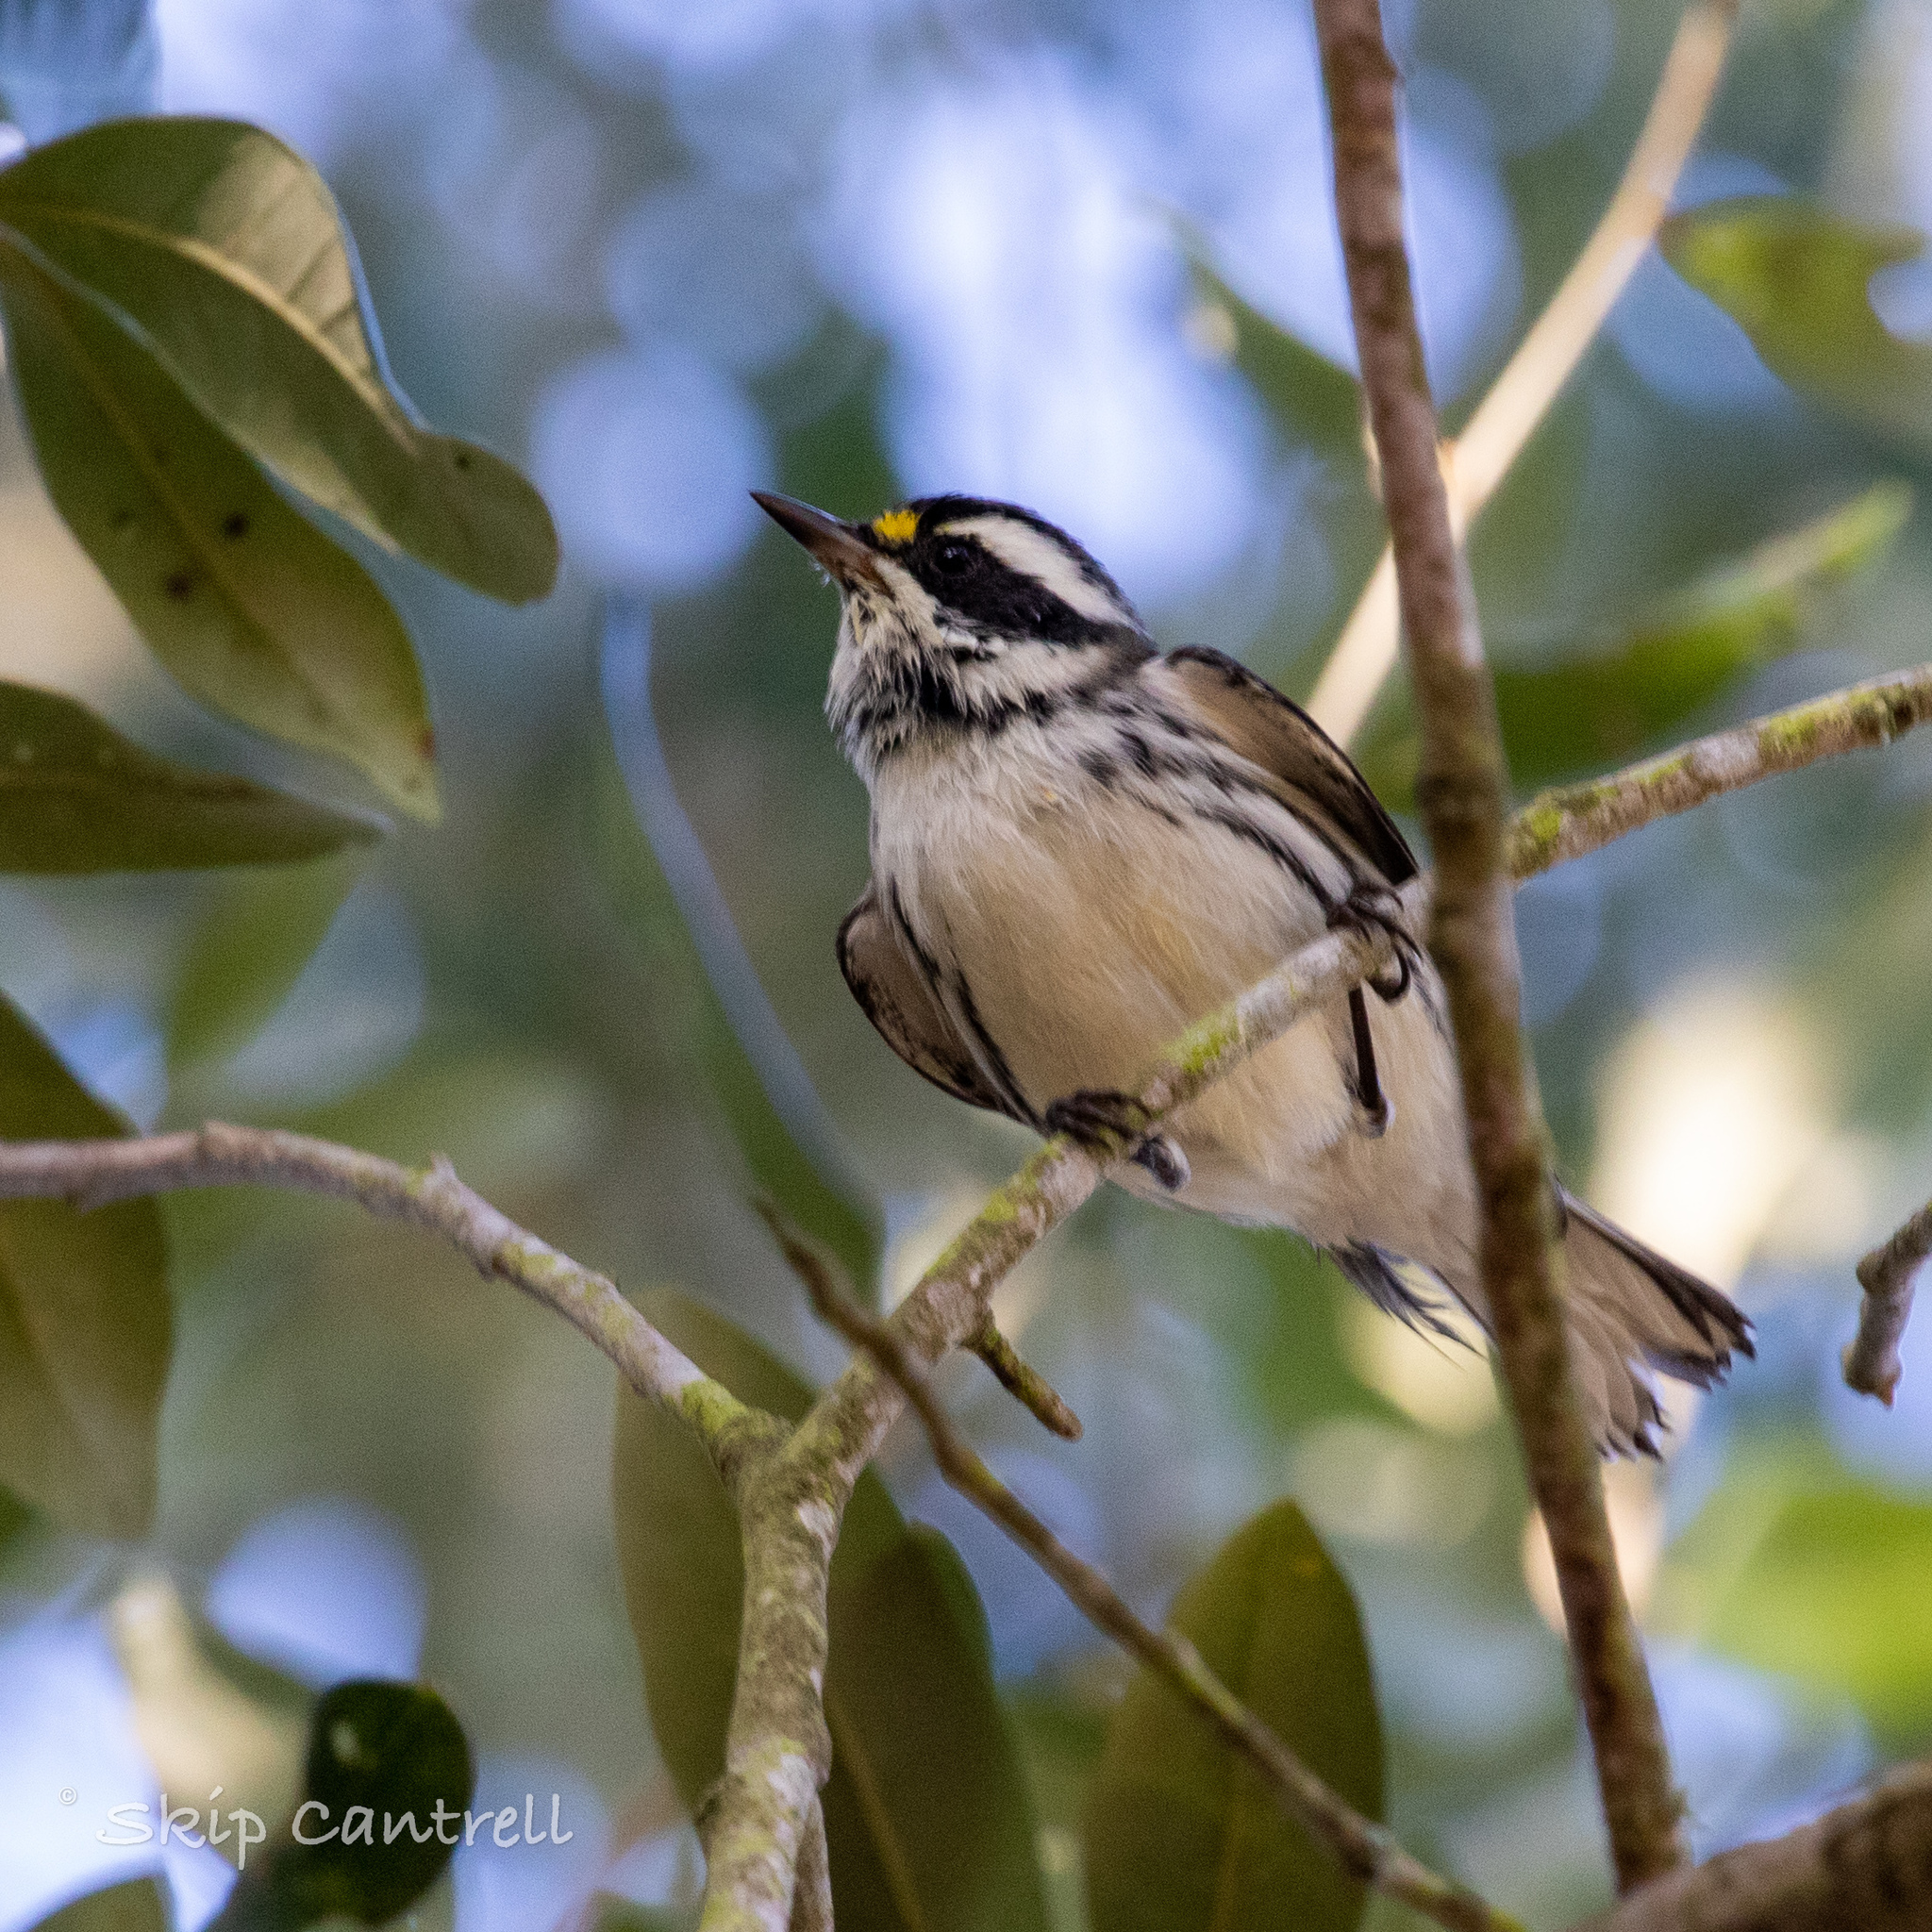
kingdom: Animalia
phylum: Chordata
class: Aves
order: Passeriformes
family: Parulidae
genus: Setophaga
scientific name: Setophaga nigrescens
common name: Black-throated gray warbler
